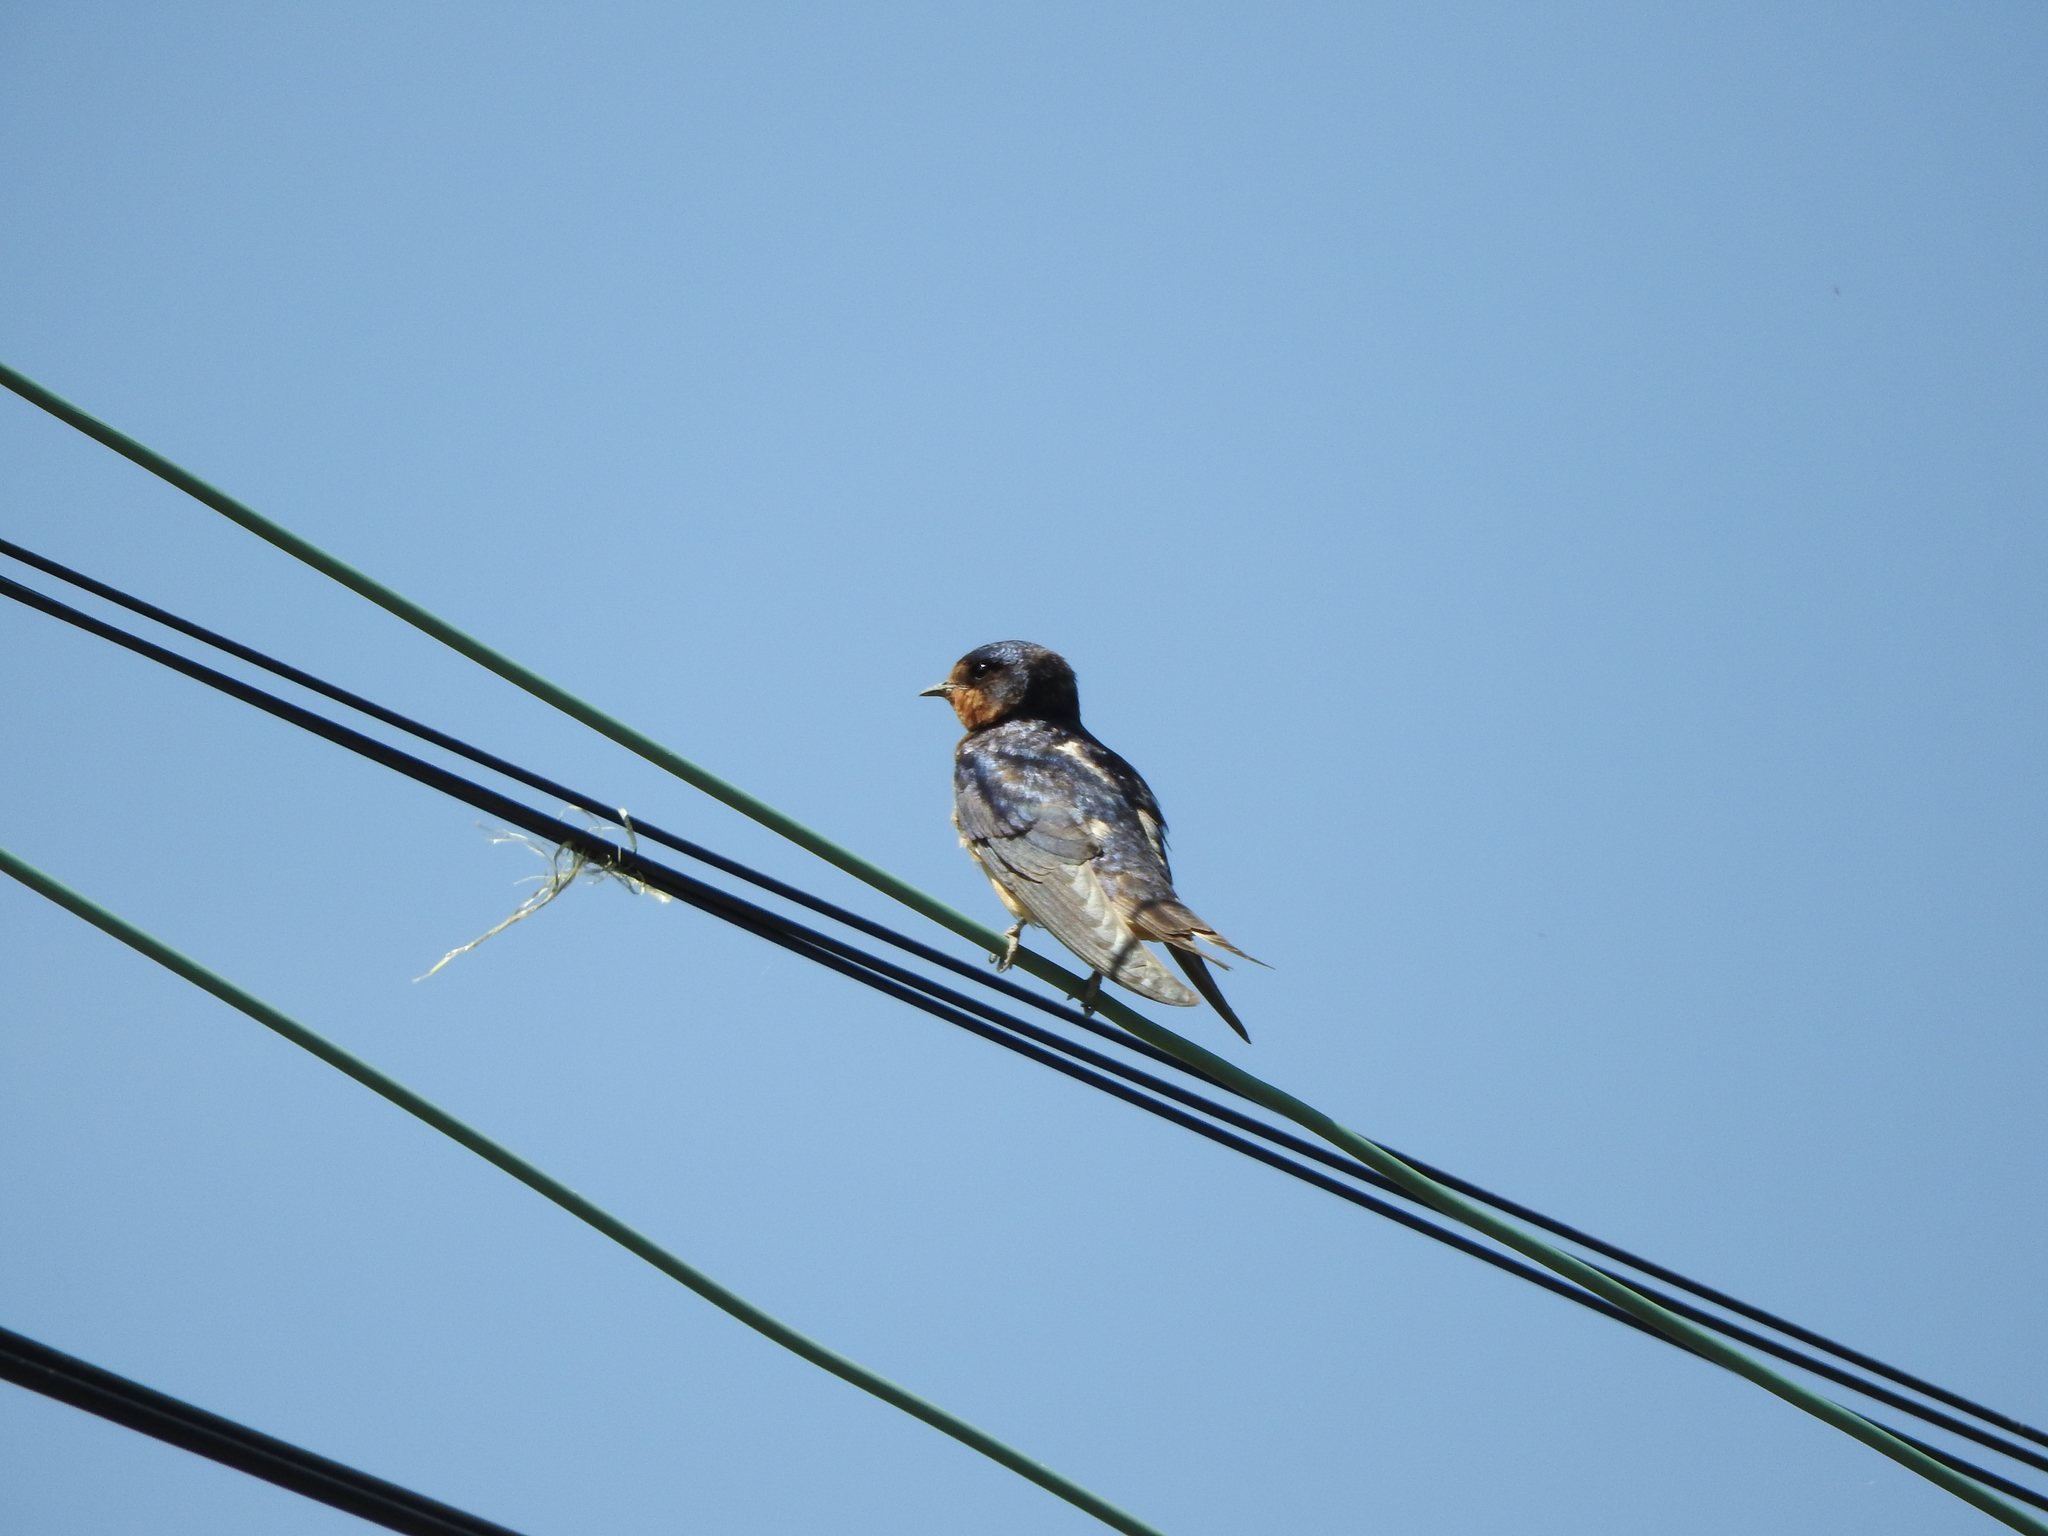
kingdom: Animalia
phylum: Chordata
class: Aves
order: Passeriformes
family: Hirundinidae
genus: Hirundo
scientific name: Hirundo rustica
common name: Barn swallow
